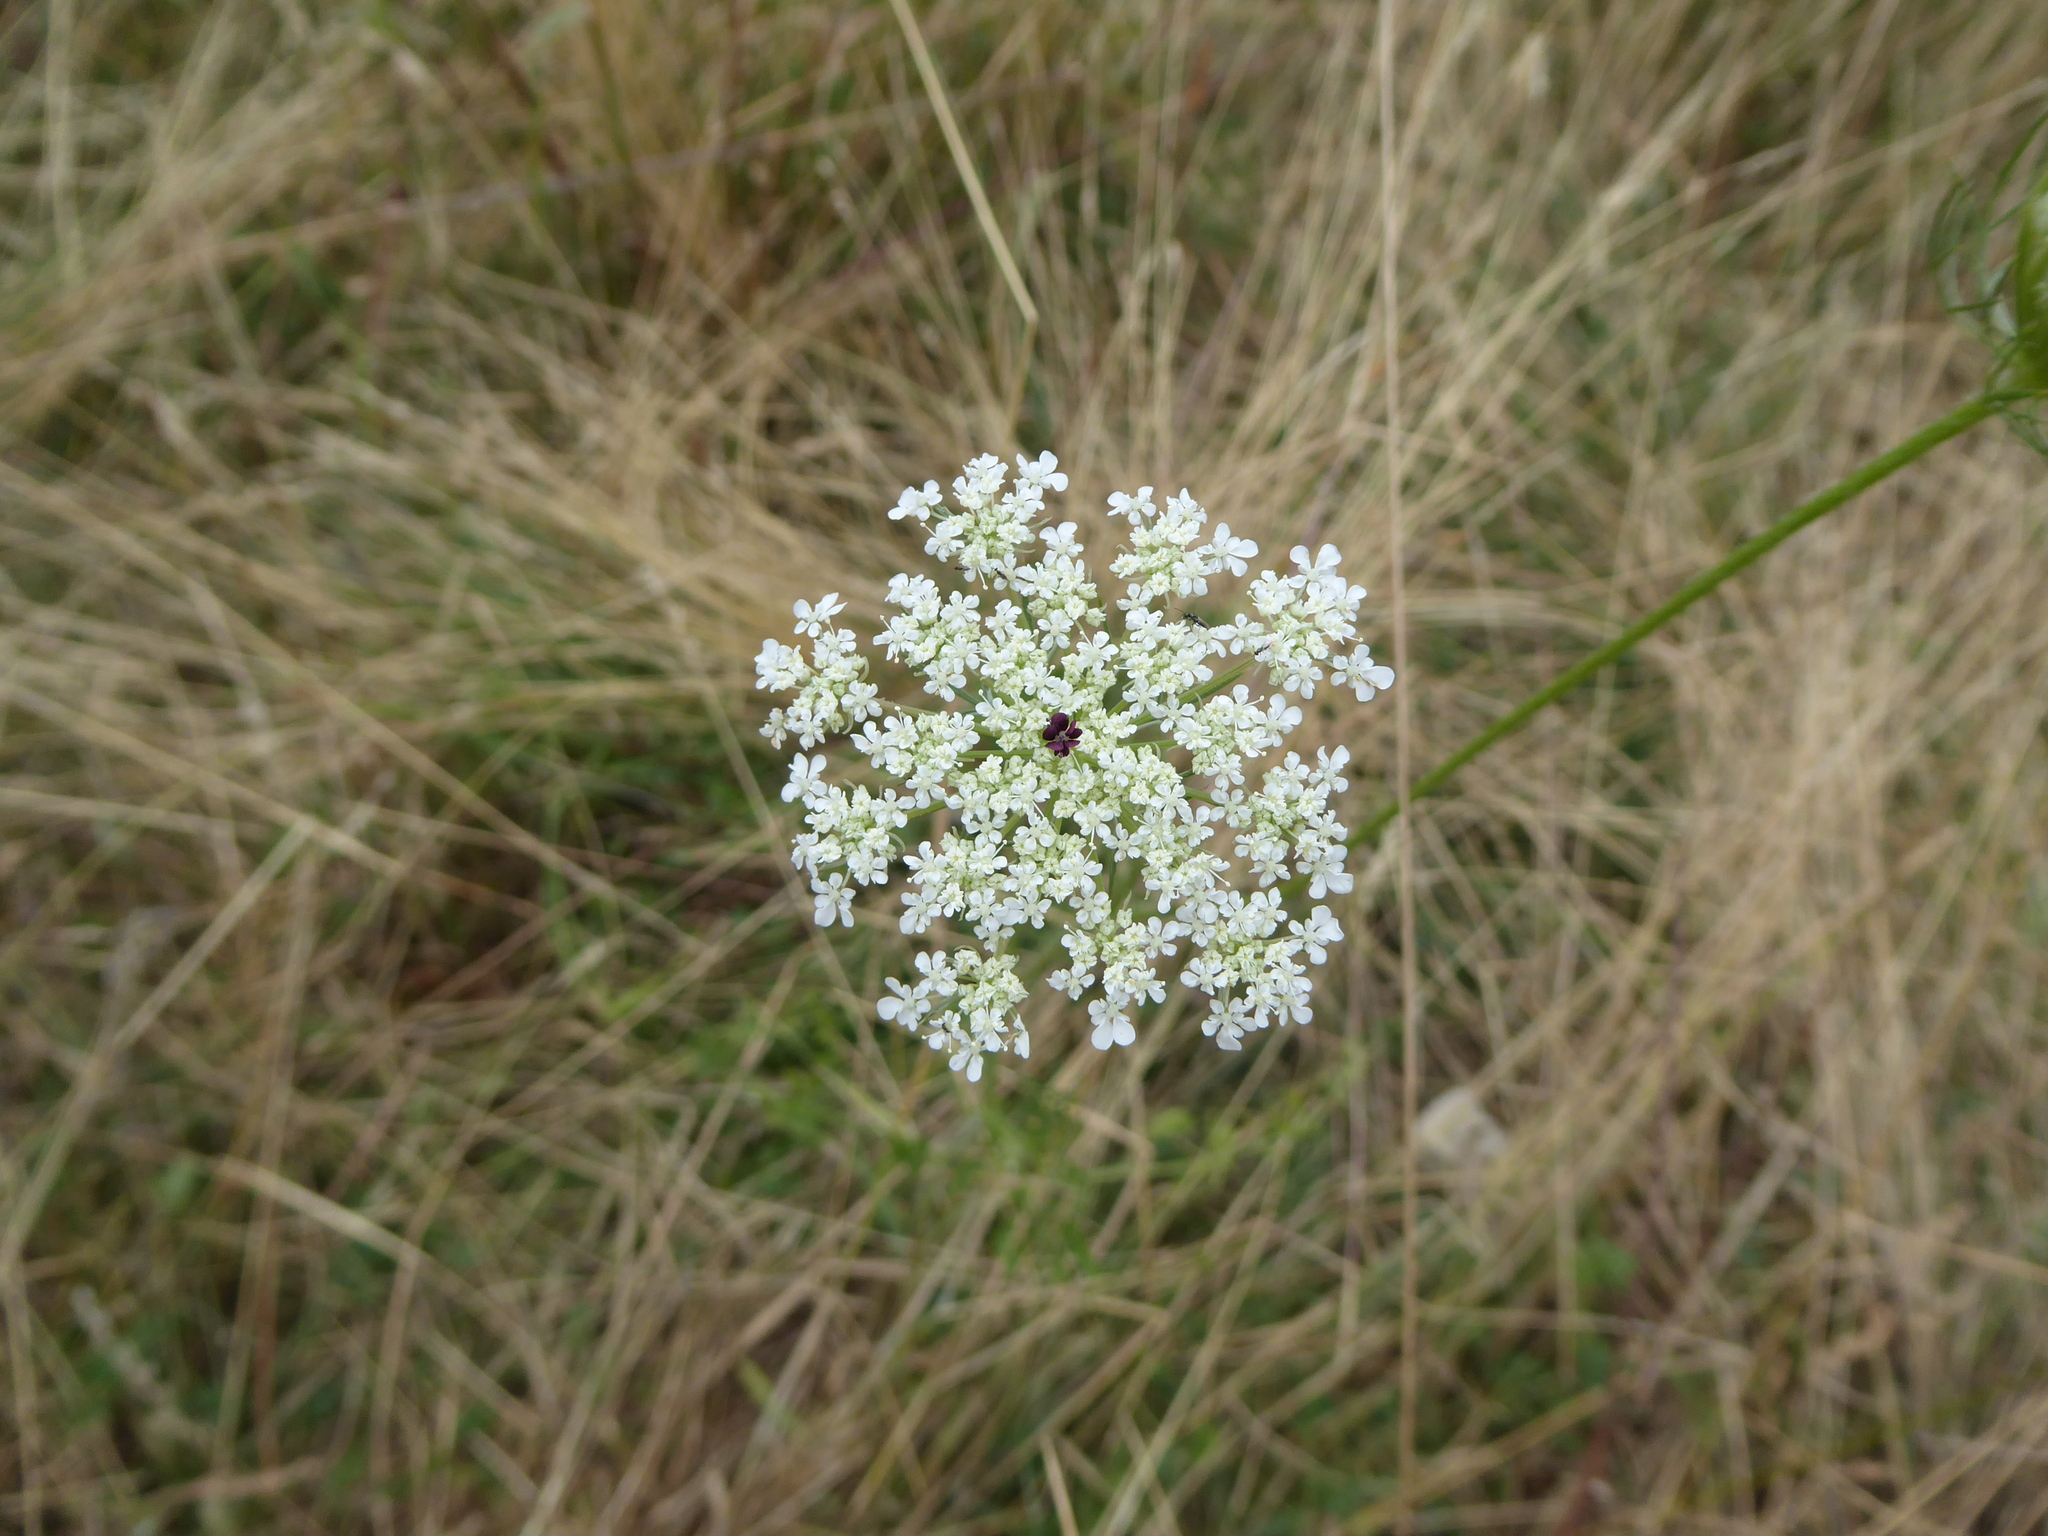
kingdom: Plantae
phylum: Tracheophyta
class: Magnoliopsida
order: Apiales
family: Apiaceae
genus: Daucus
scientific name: Daucus carota
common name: Wild carrot
